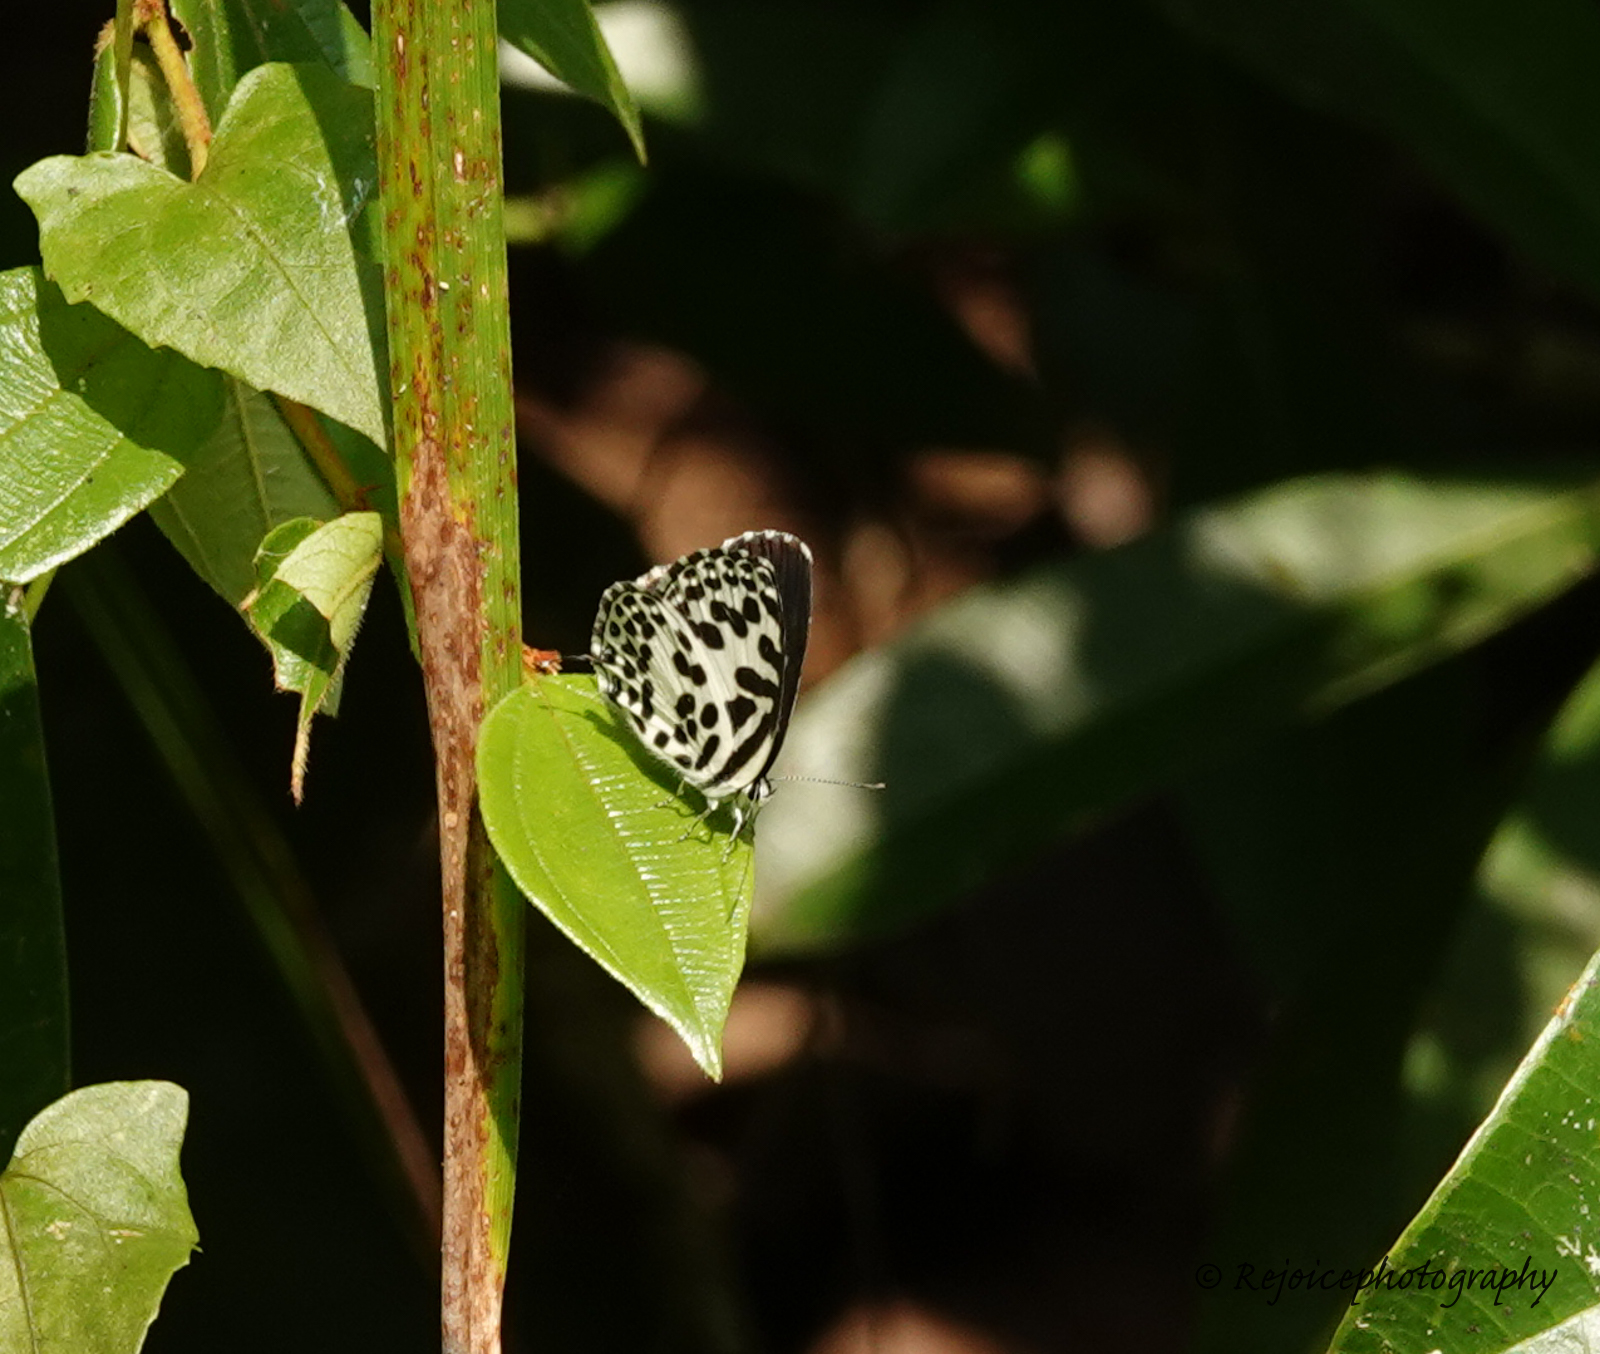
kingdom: Animalia
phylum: Arthropoda
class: Insecta
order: Lepidoptera
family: Lycaenidae
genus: Castalius
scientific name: Castalius rosimon
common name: Common pierrot
